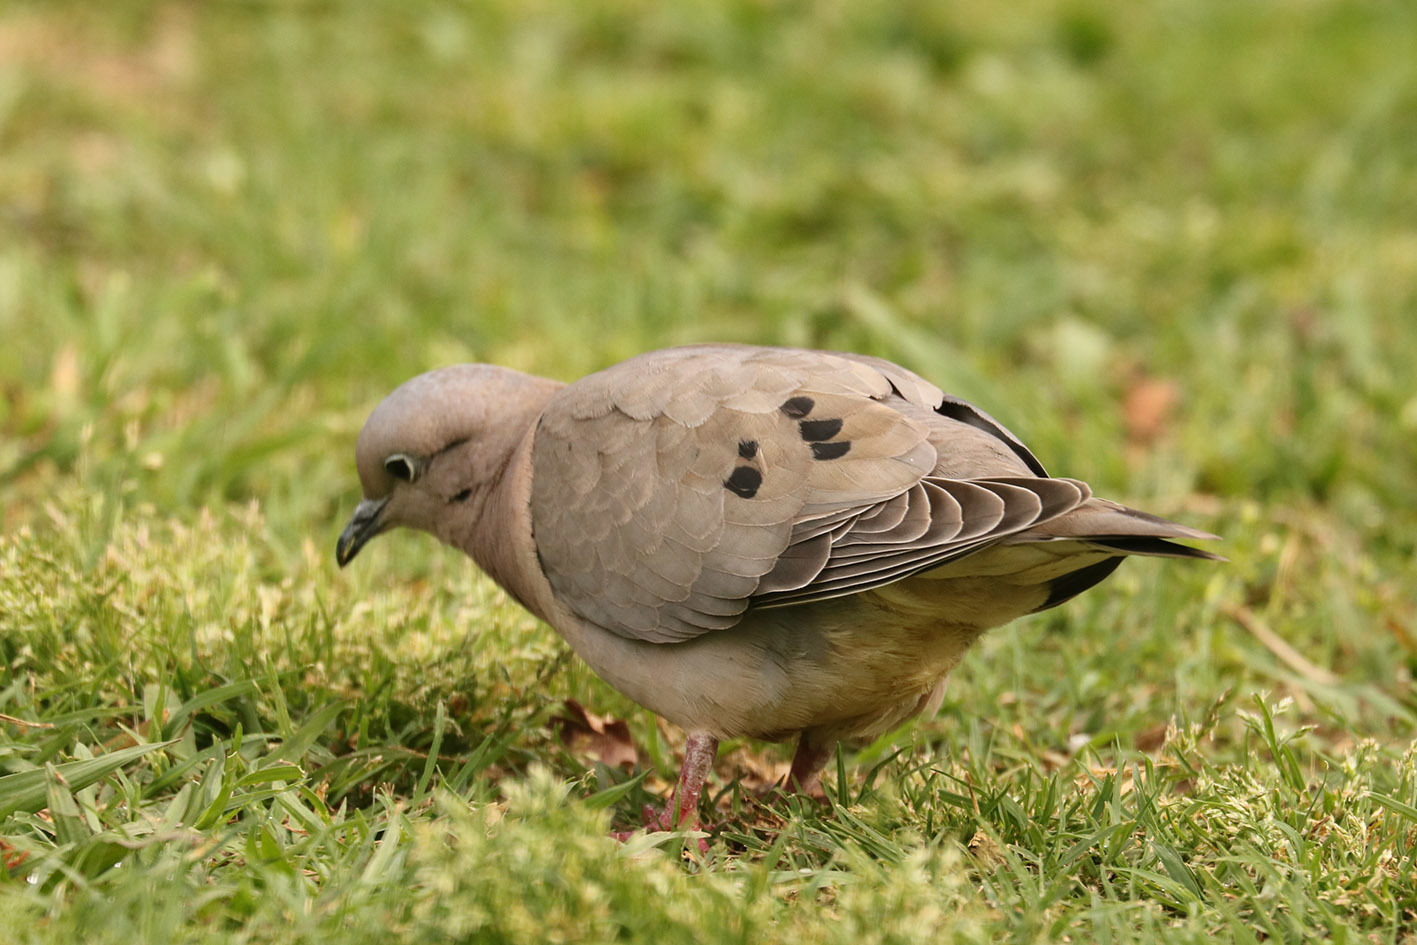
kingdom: Animalia
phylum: Chordata
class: Aves
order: Columbiformes
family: Columbidae
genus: Zenaida
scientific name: Zenaida auriculata
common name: Eared dove
